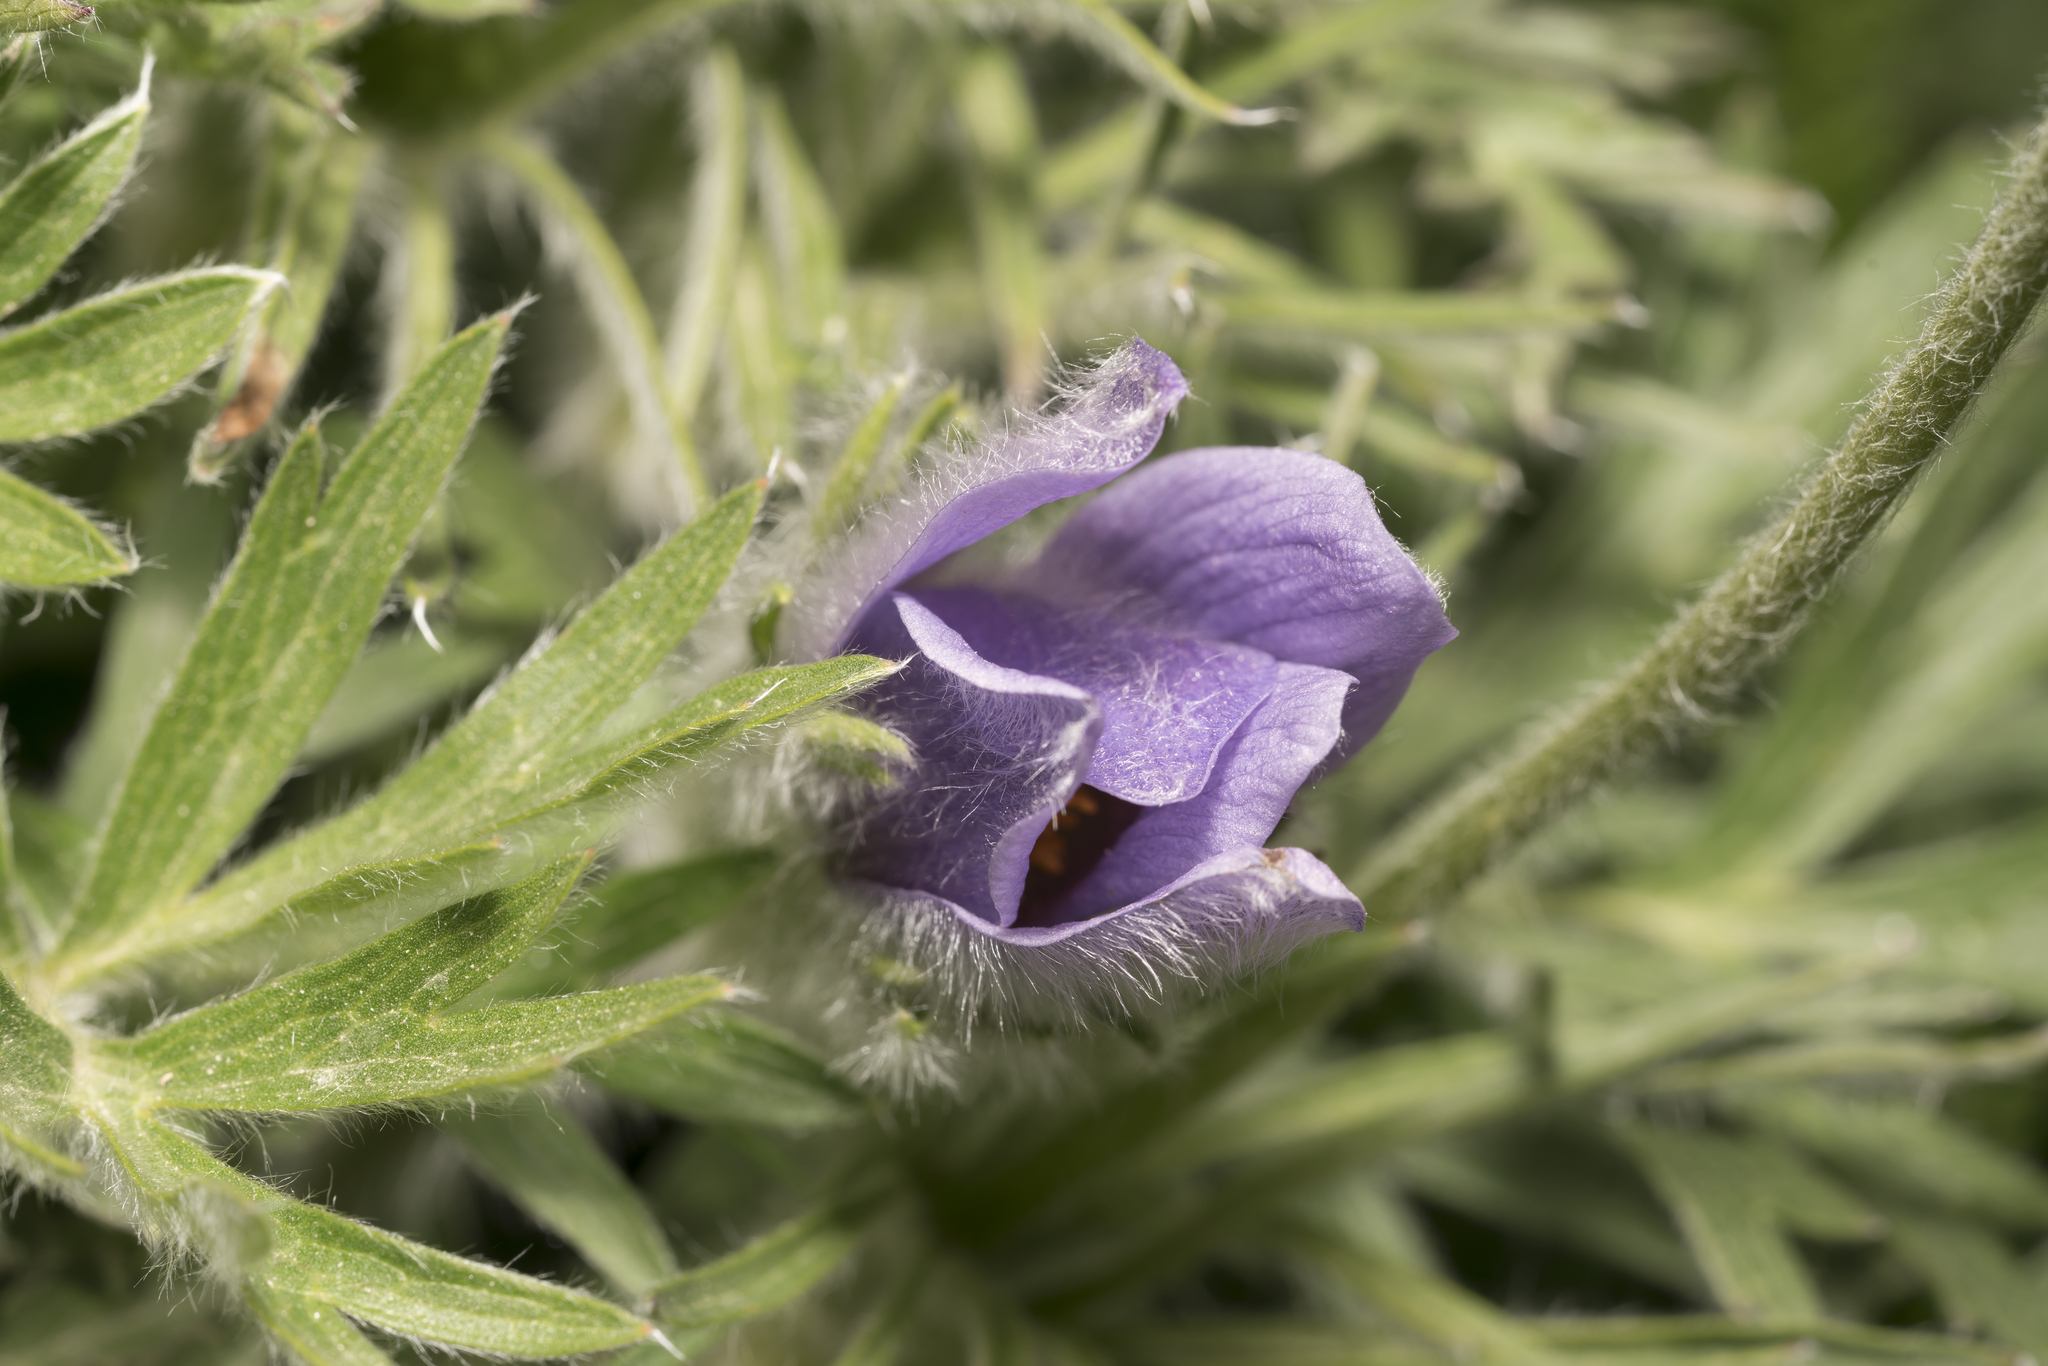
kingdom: Plantae
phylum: Tracheophyta
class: Magnoliopsida
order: Ranunculales
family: Ranunculaceae
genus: Pulsatilla
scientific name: Pulsatilla halleri
